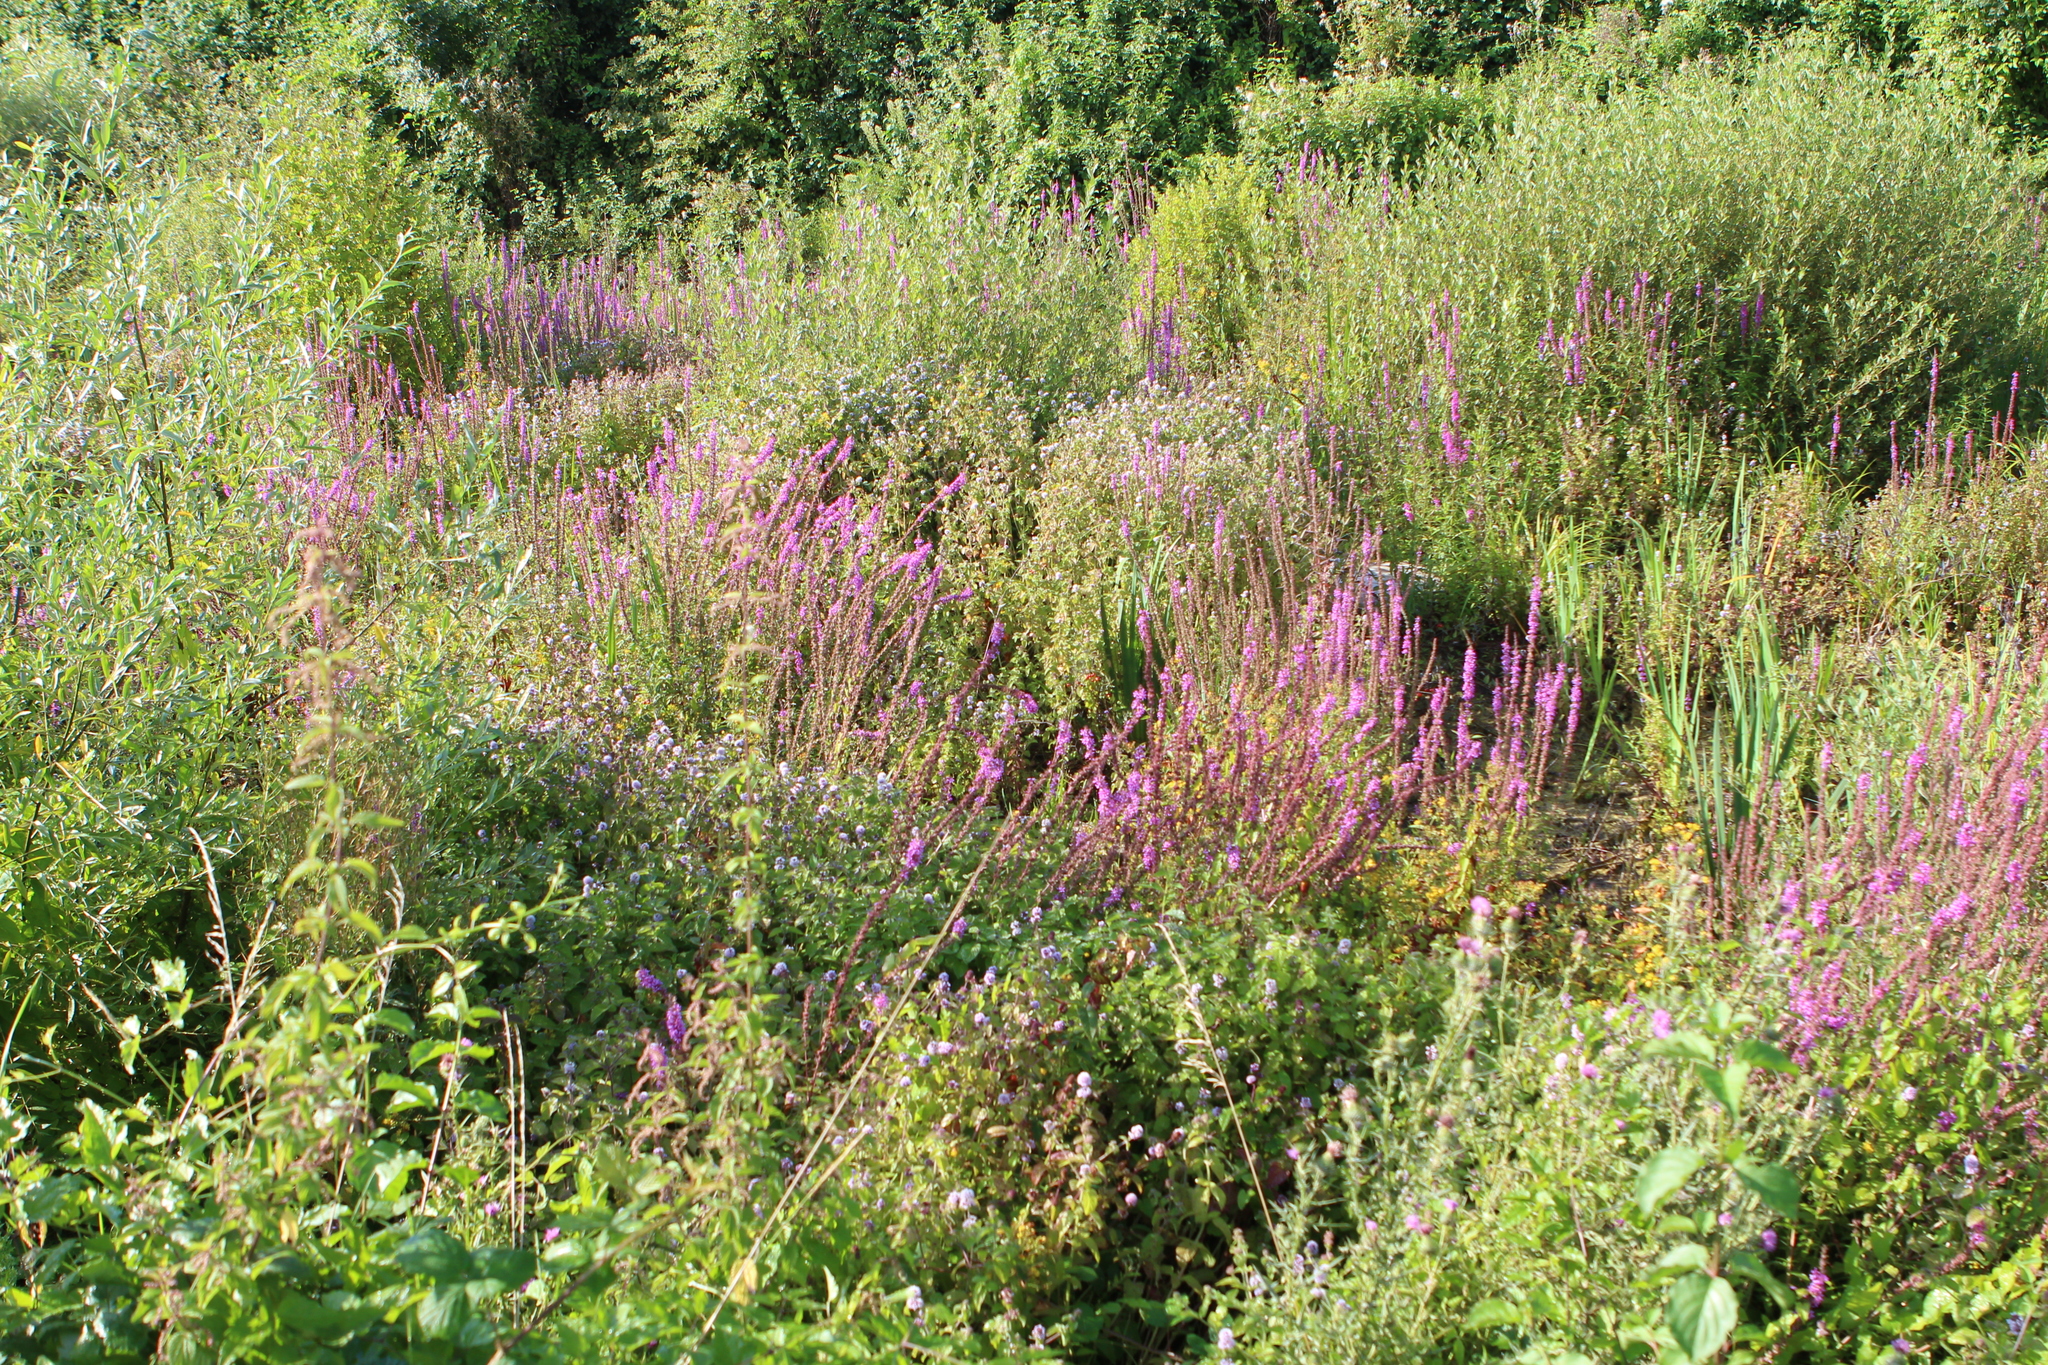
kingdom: Plantae
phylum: Tracheophyta
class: Magnoliopsida
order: Myrtales
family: Lythraceae
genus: Lythrum
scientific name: Lythrum salicaria
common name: Purple loosestrife
